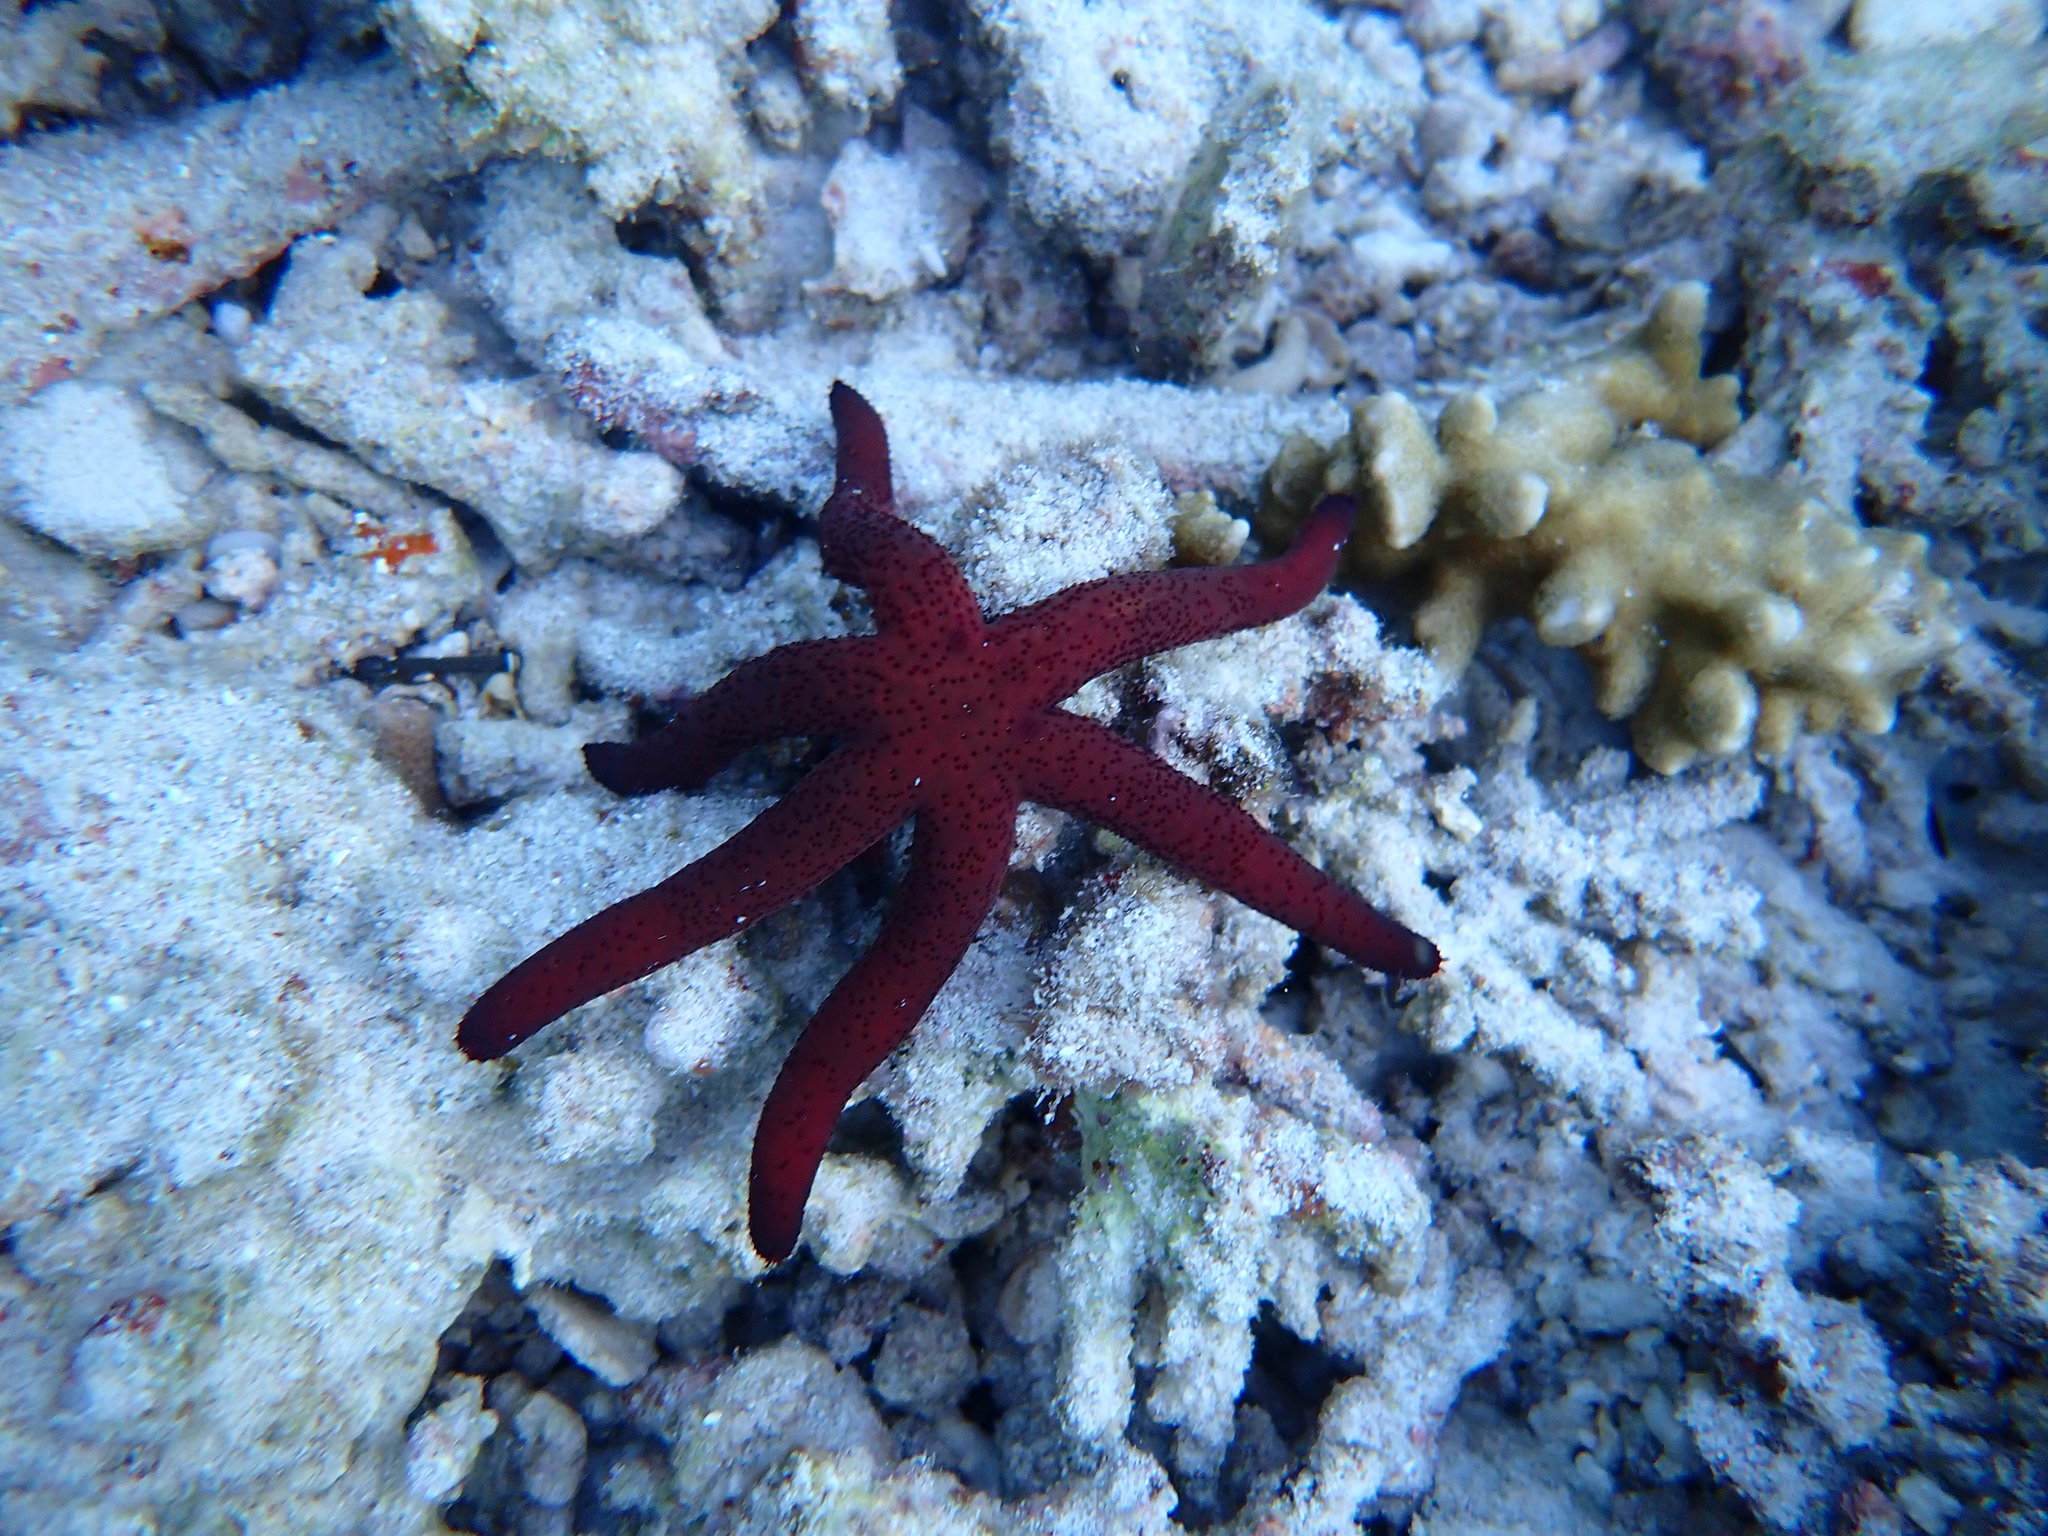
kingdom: Animalia
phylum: Echinodermata
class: Asteroidea
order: Spinulosida
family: Echinasteridae
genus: Echinaster
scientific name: Echinaster luzonicus
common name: Luzon seastar
